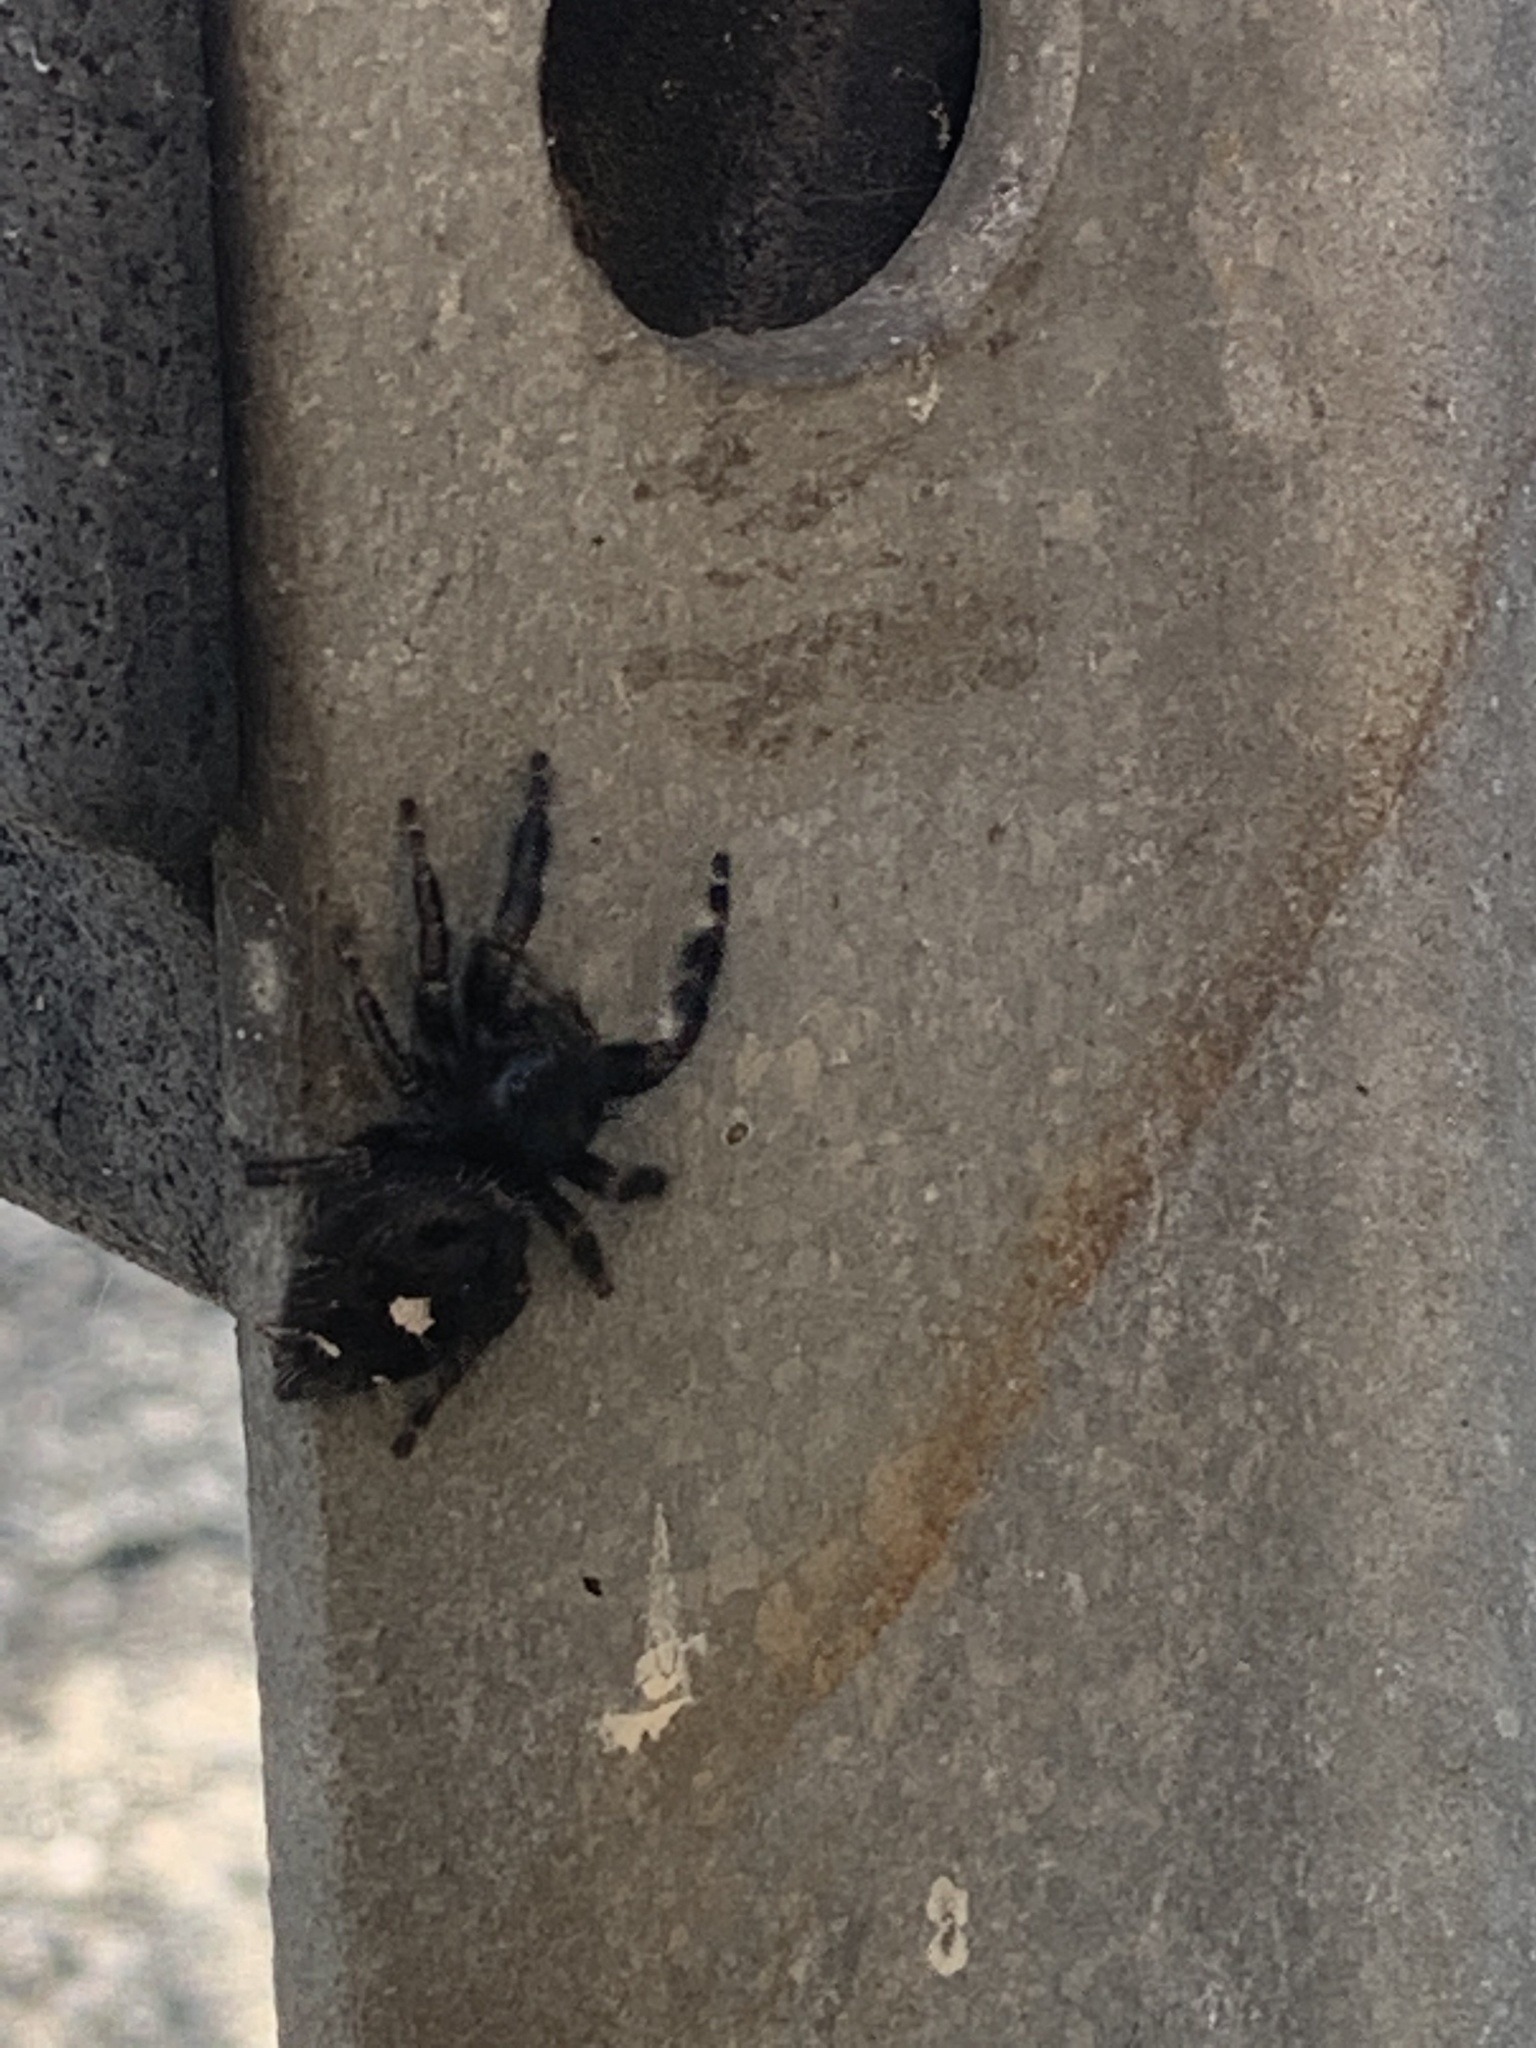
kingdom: Animalia
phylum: Arthropoda
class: Arachnida
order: Araneae
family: Salticidae
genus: Phidippus
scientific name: Phidippus audax
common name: Bold jumper
